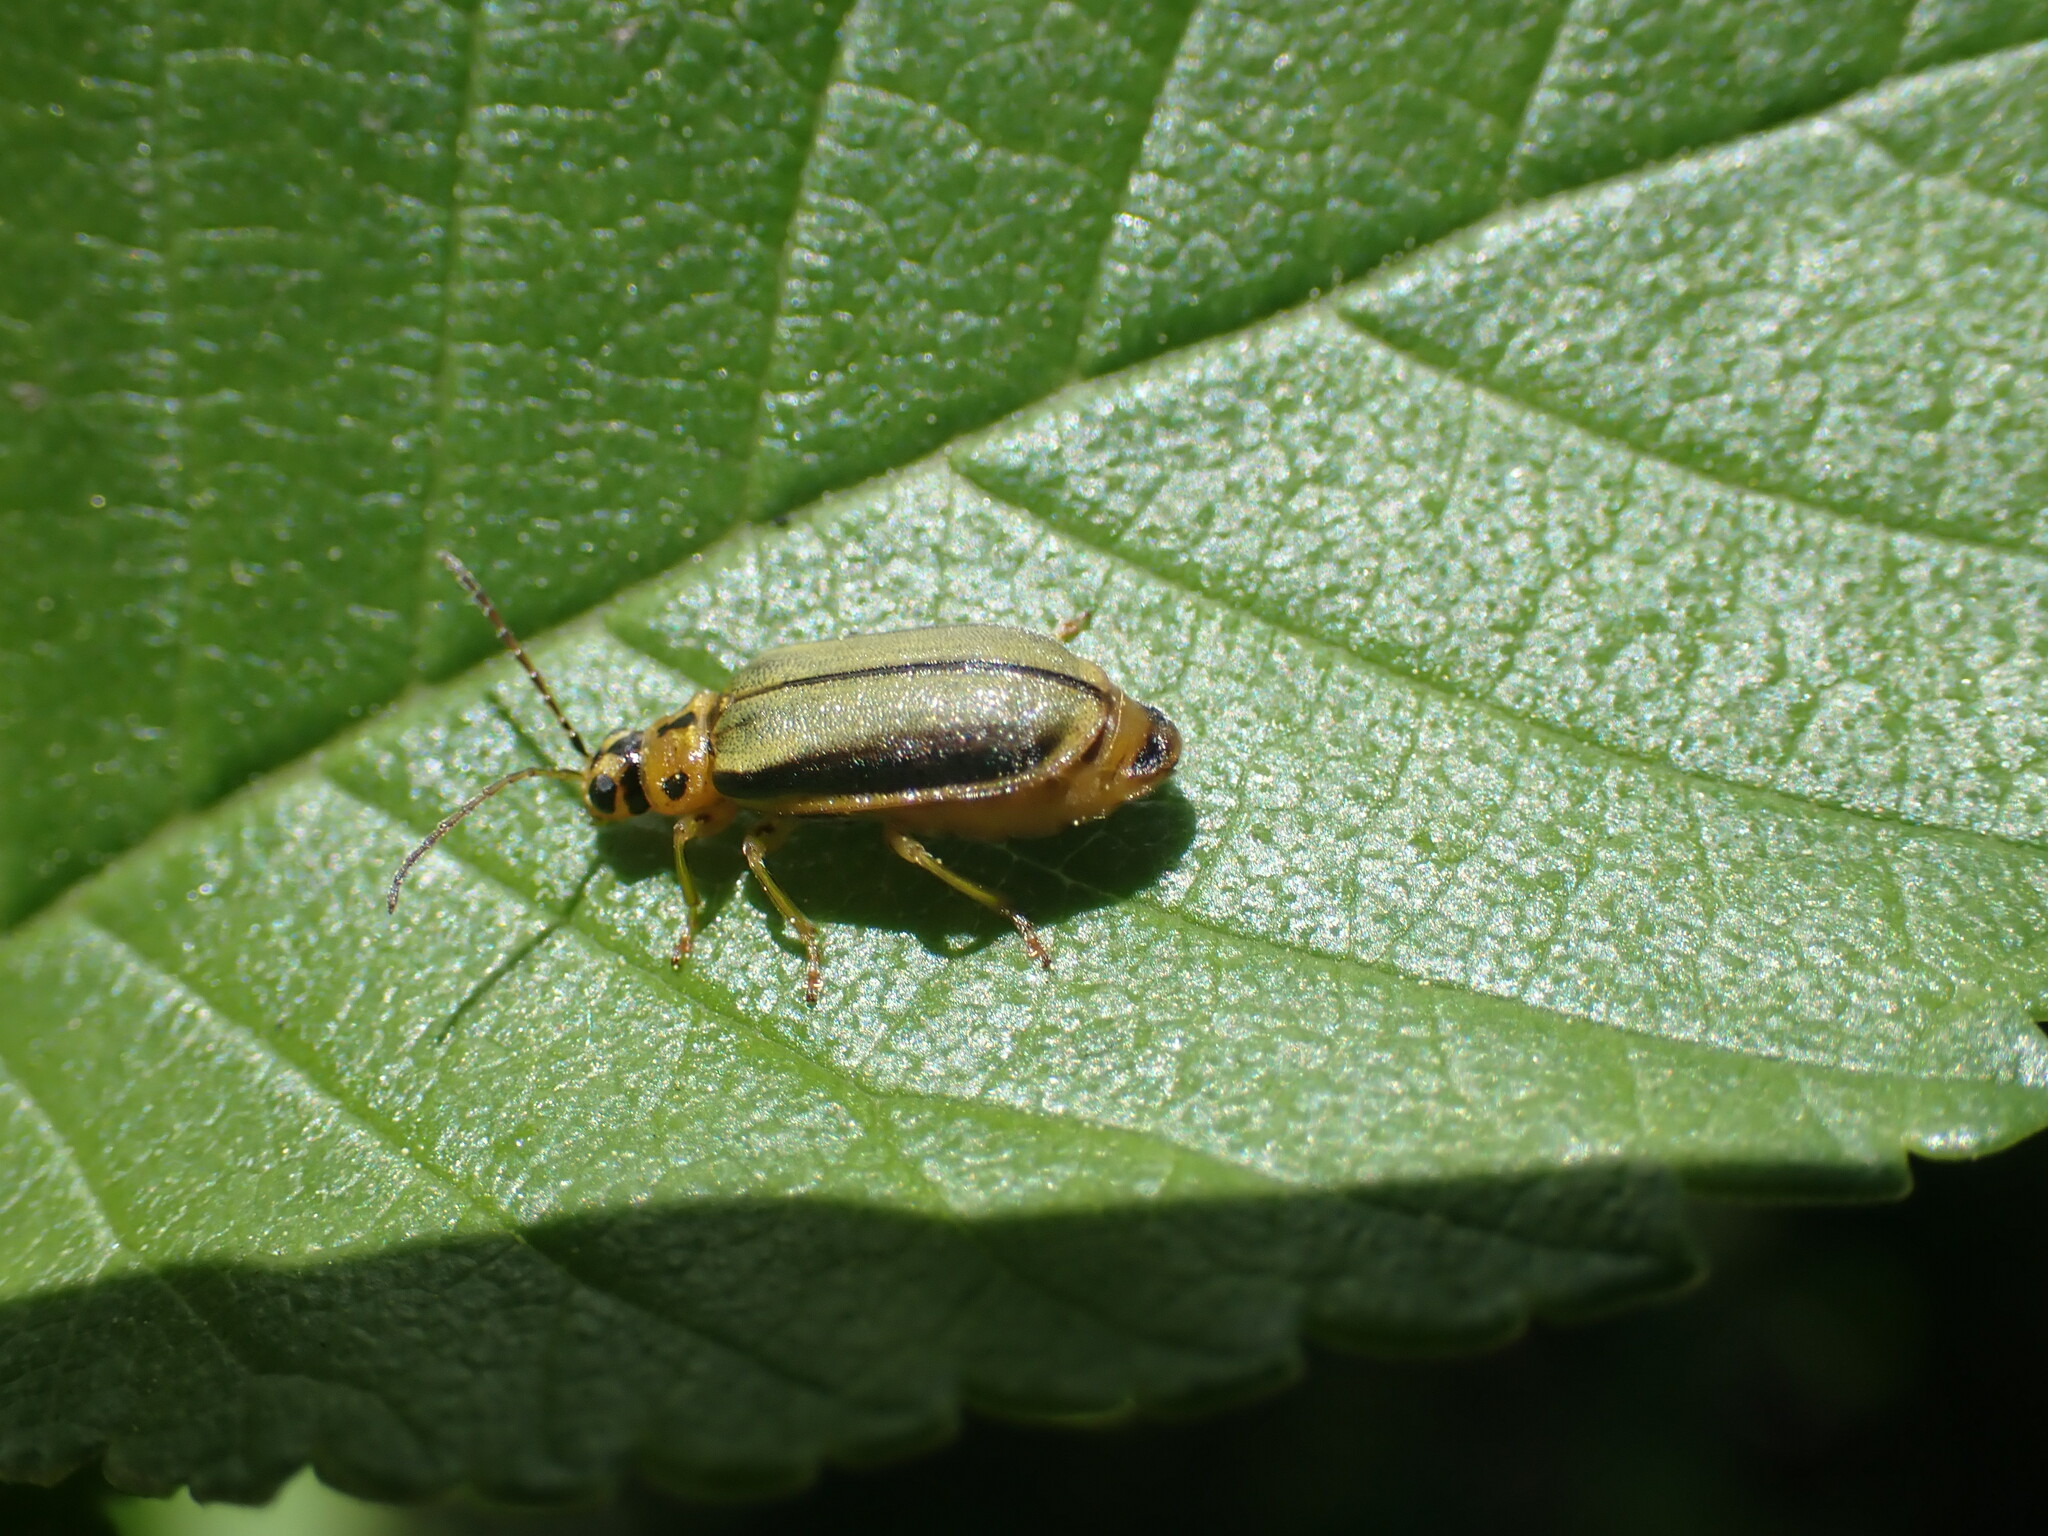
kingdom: Animalia
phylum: Arthropoda
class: Insecta
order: Coleoptera
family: Chrysomelidae
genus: Xanthogaleruca
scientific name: Xanthogaleruca luteola
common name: Elm leaf beetle
